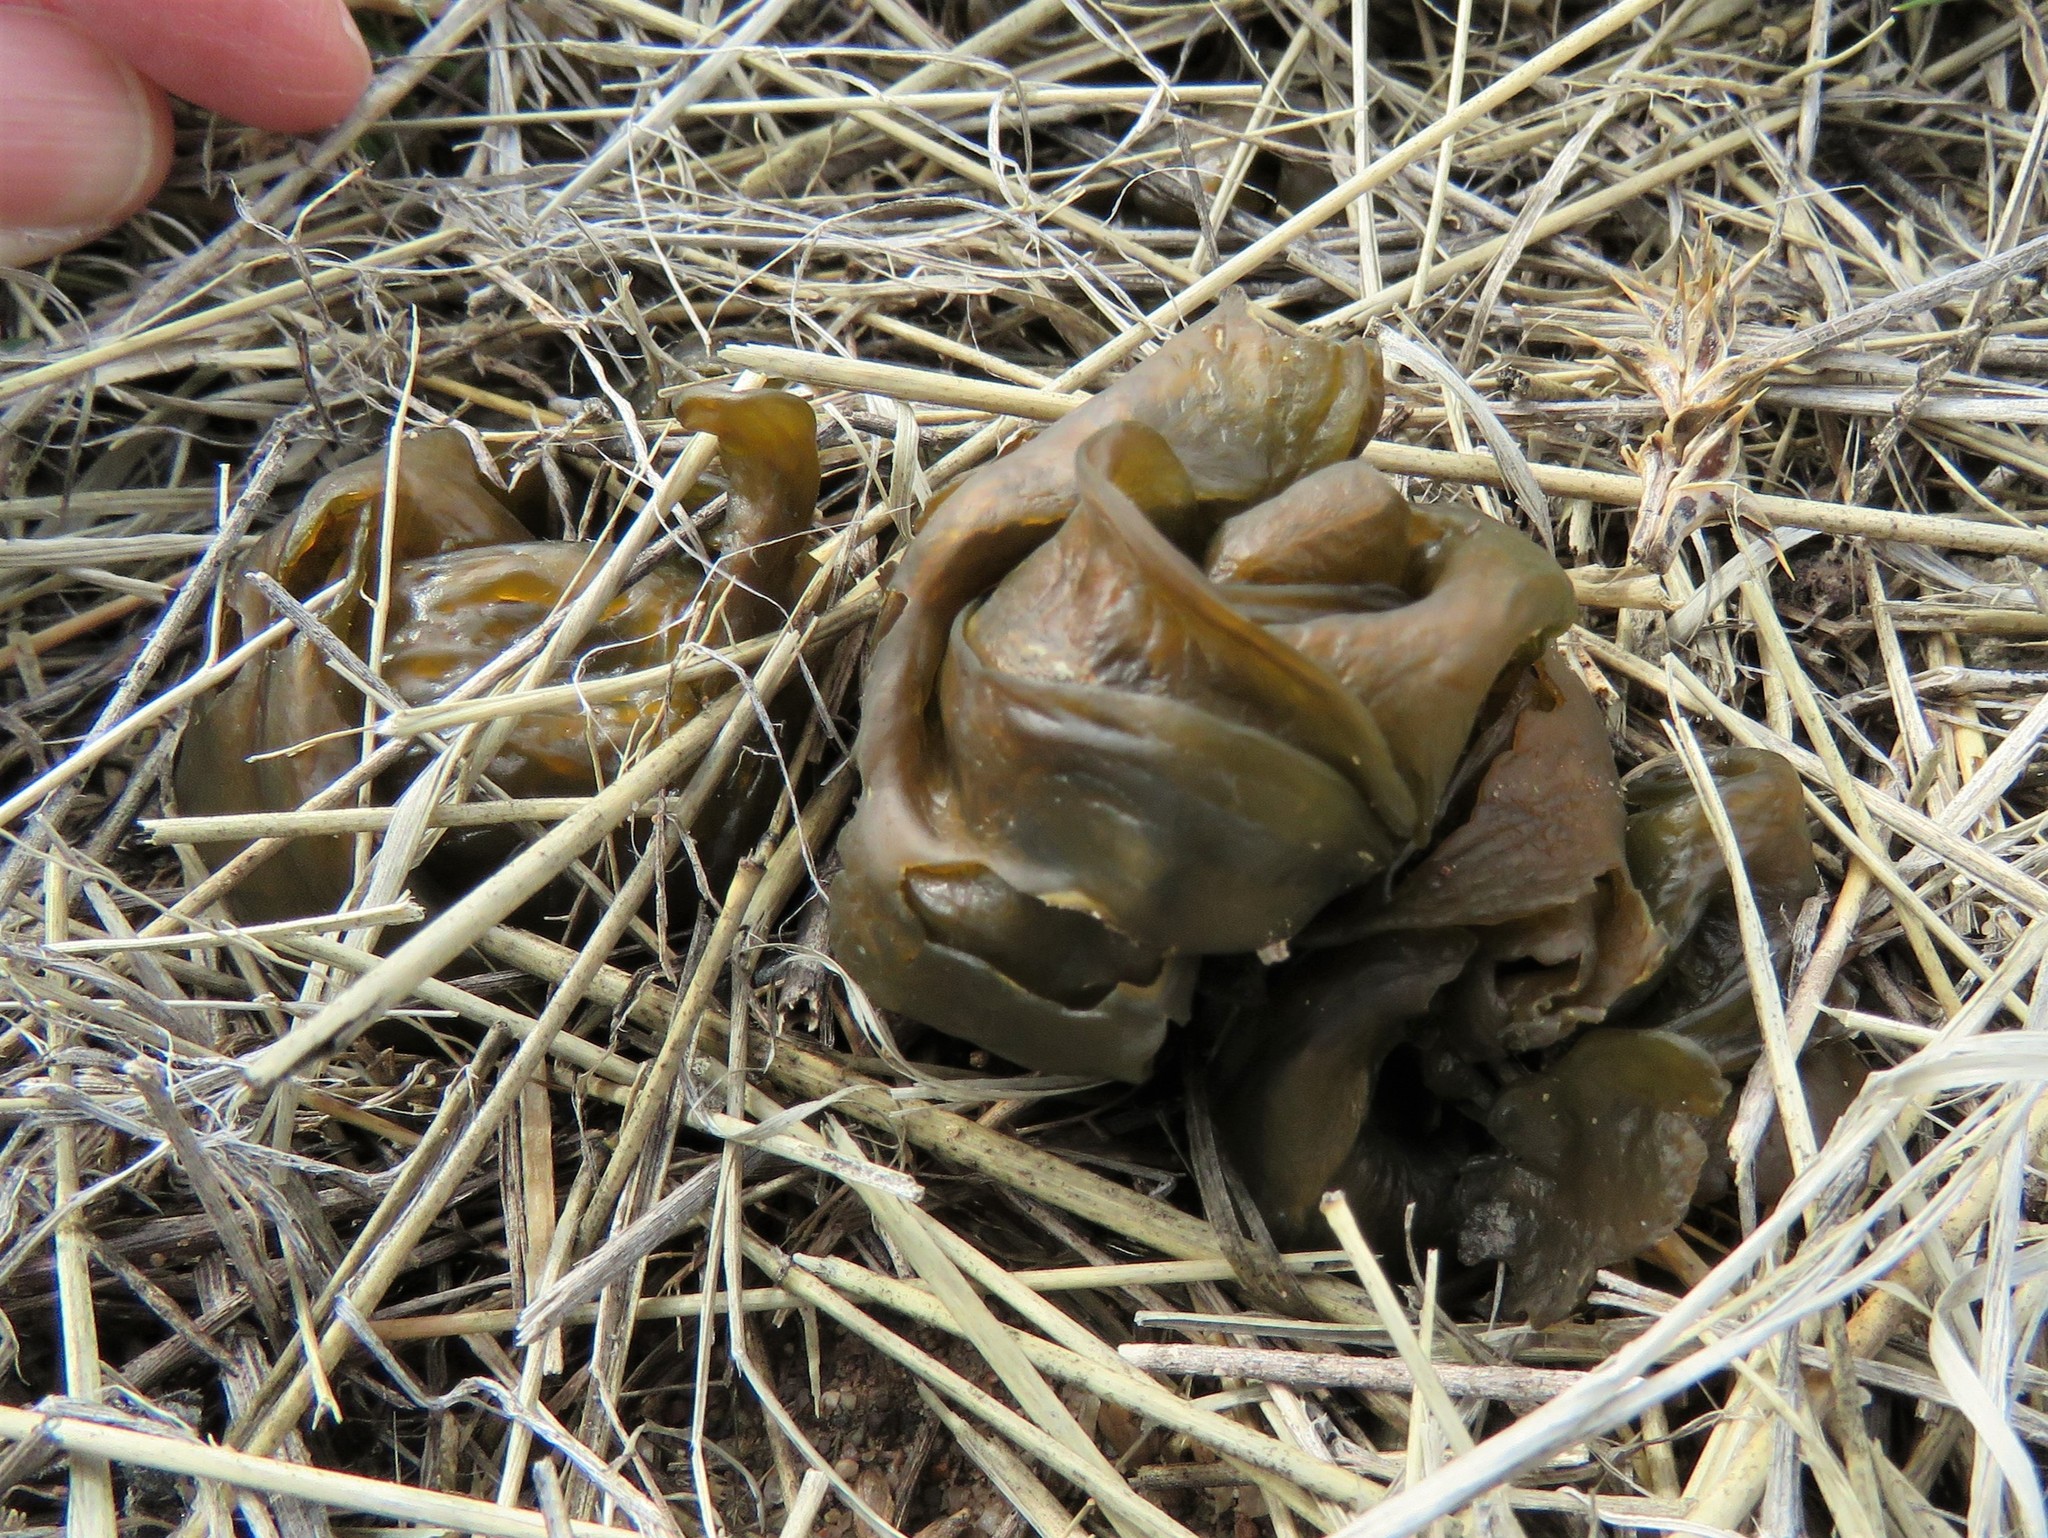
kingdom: Bacteria
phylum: Cyanobacteria
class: Cyanobacteriia
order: Cyanobacteriales
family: Nostocaceae
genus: Nostoc
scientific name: Nostoc commune
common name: Star jelly
